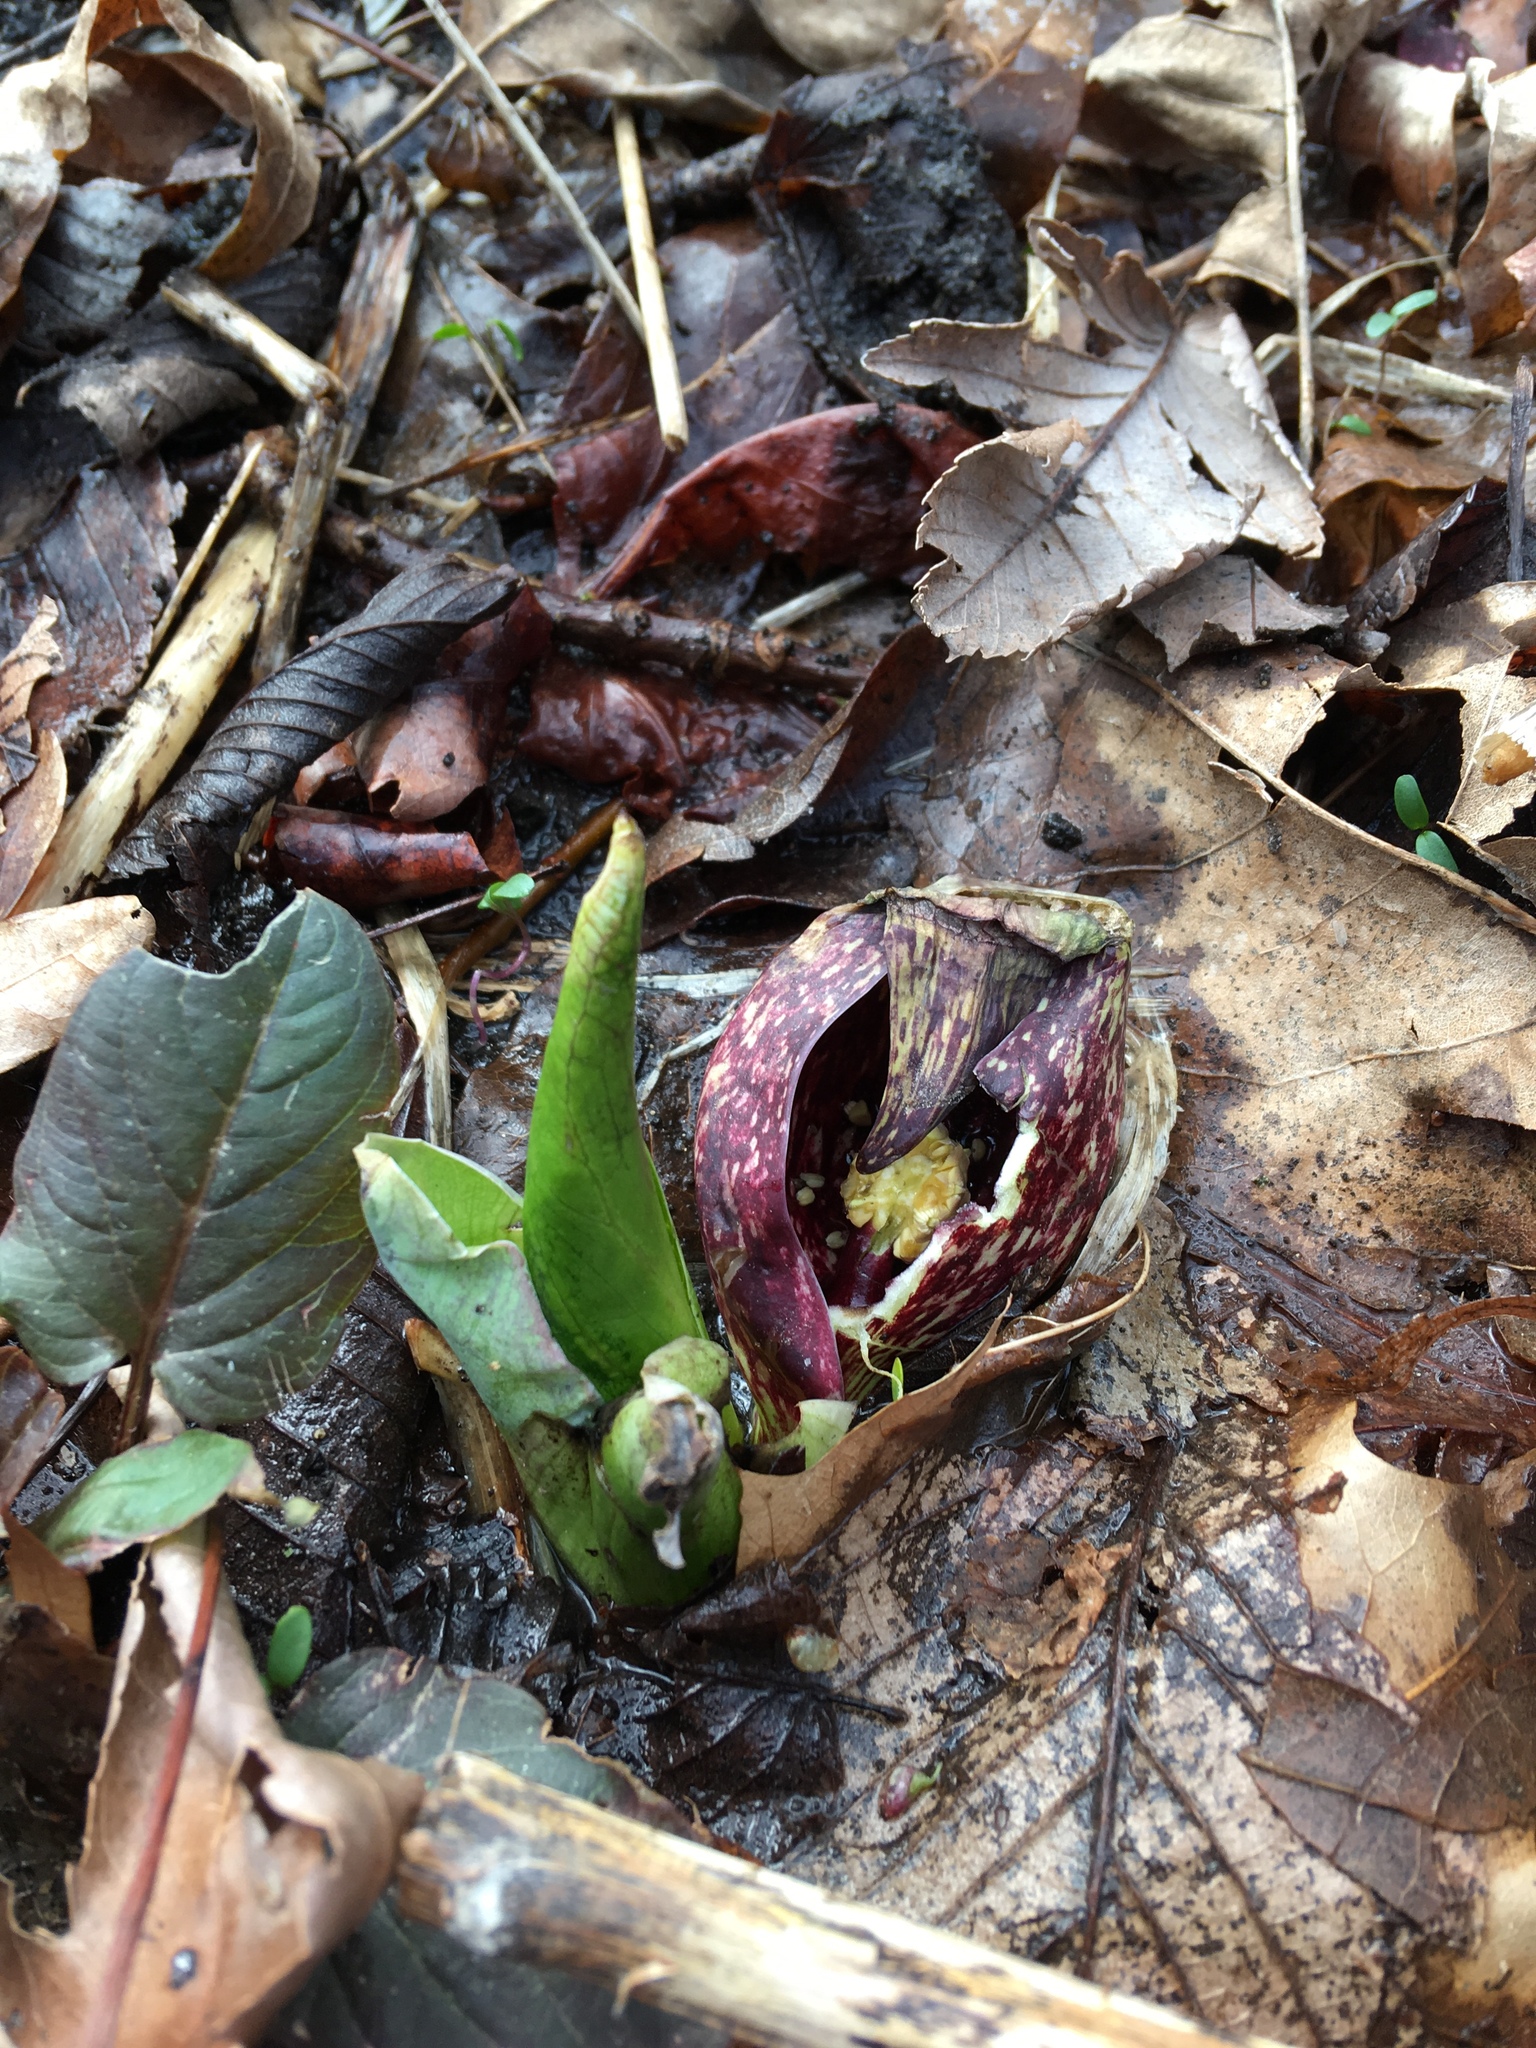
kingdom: Plantae
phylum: Tracheophyta
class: Liliopsida
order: Alismatales
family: Araceae
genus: Symplocarpus
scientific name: Symplocarpus foetidus
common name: Eastern skunk cabbage
